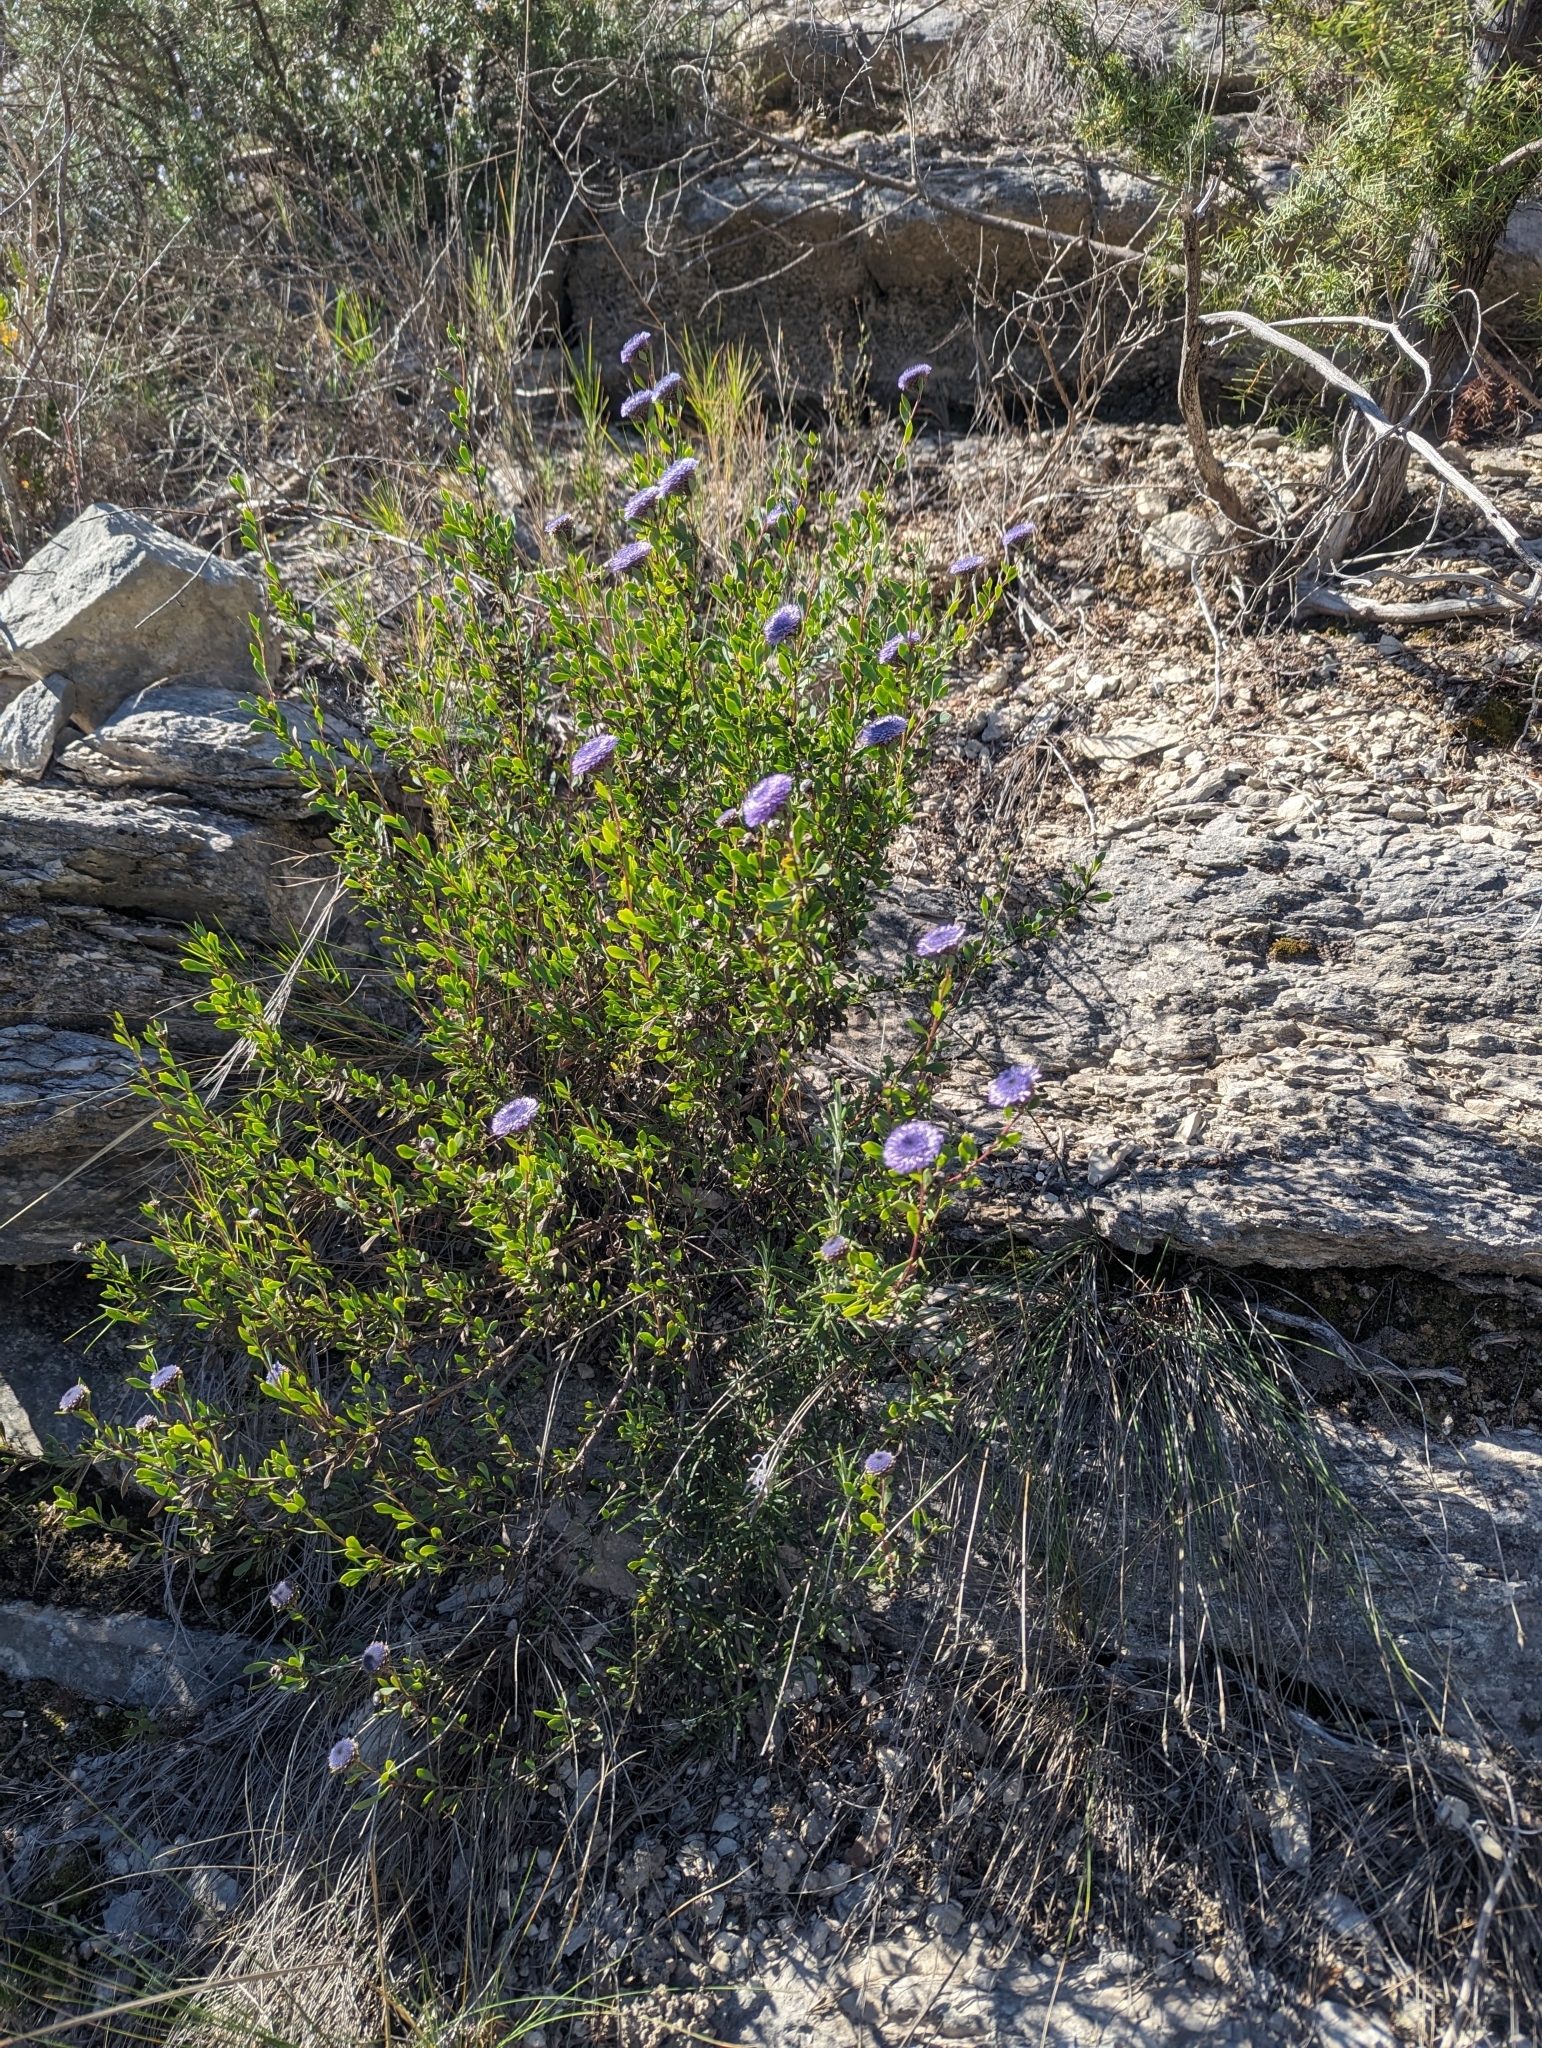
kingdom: Plantae
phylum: Tracheophyta
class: Magnoliopsida
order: Lamiales
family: Plantaginaceae
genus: Globularia
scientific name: Globularia alypum
